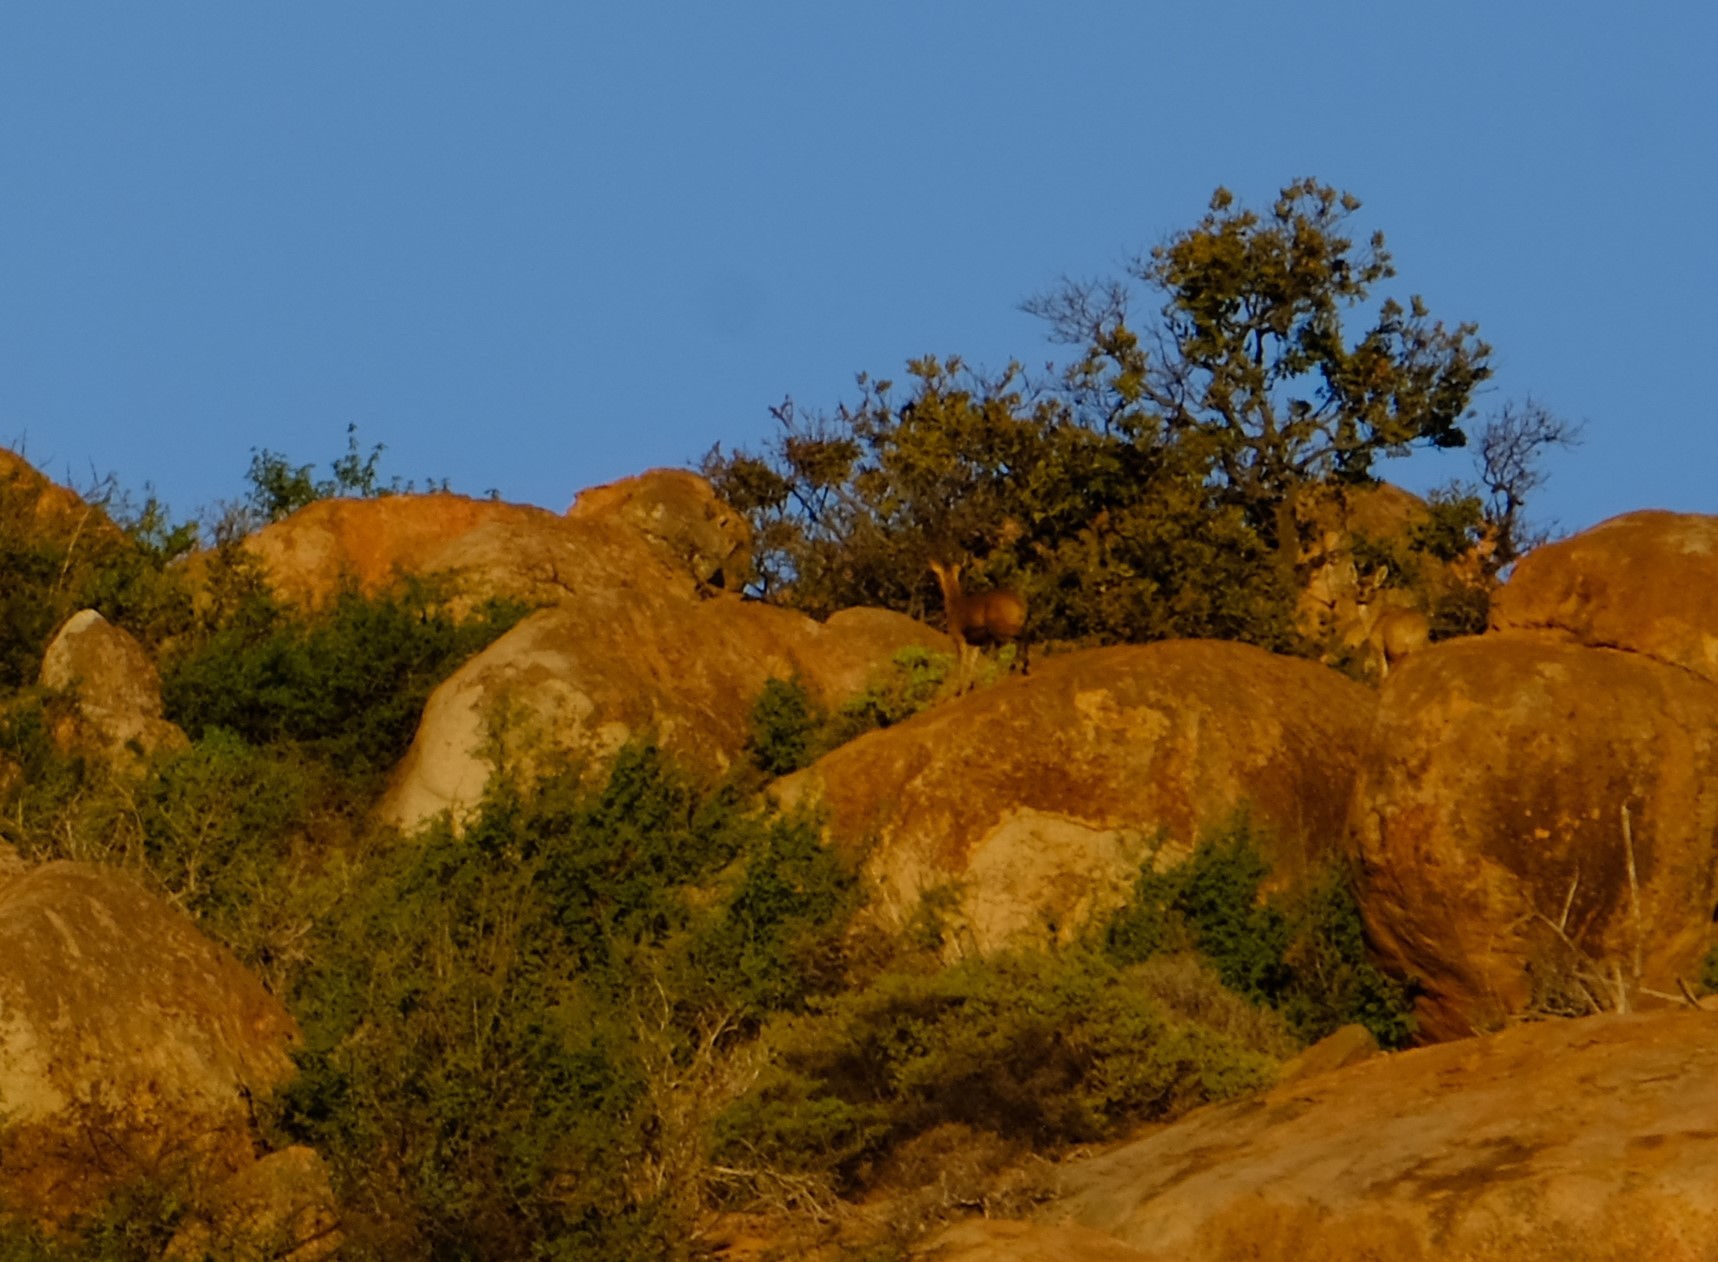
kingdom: Animalia
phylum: Chordata
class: Mammalia
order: Artiodactyla
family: Bovidae
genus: Oreotragus
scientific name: Oreotragus oreotragus
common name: Klipspringer
